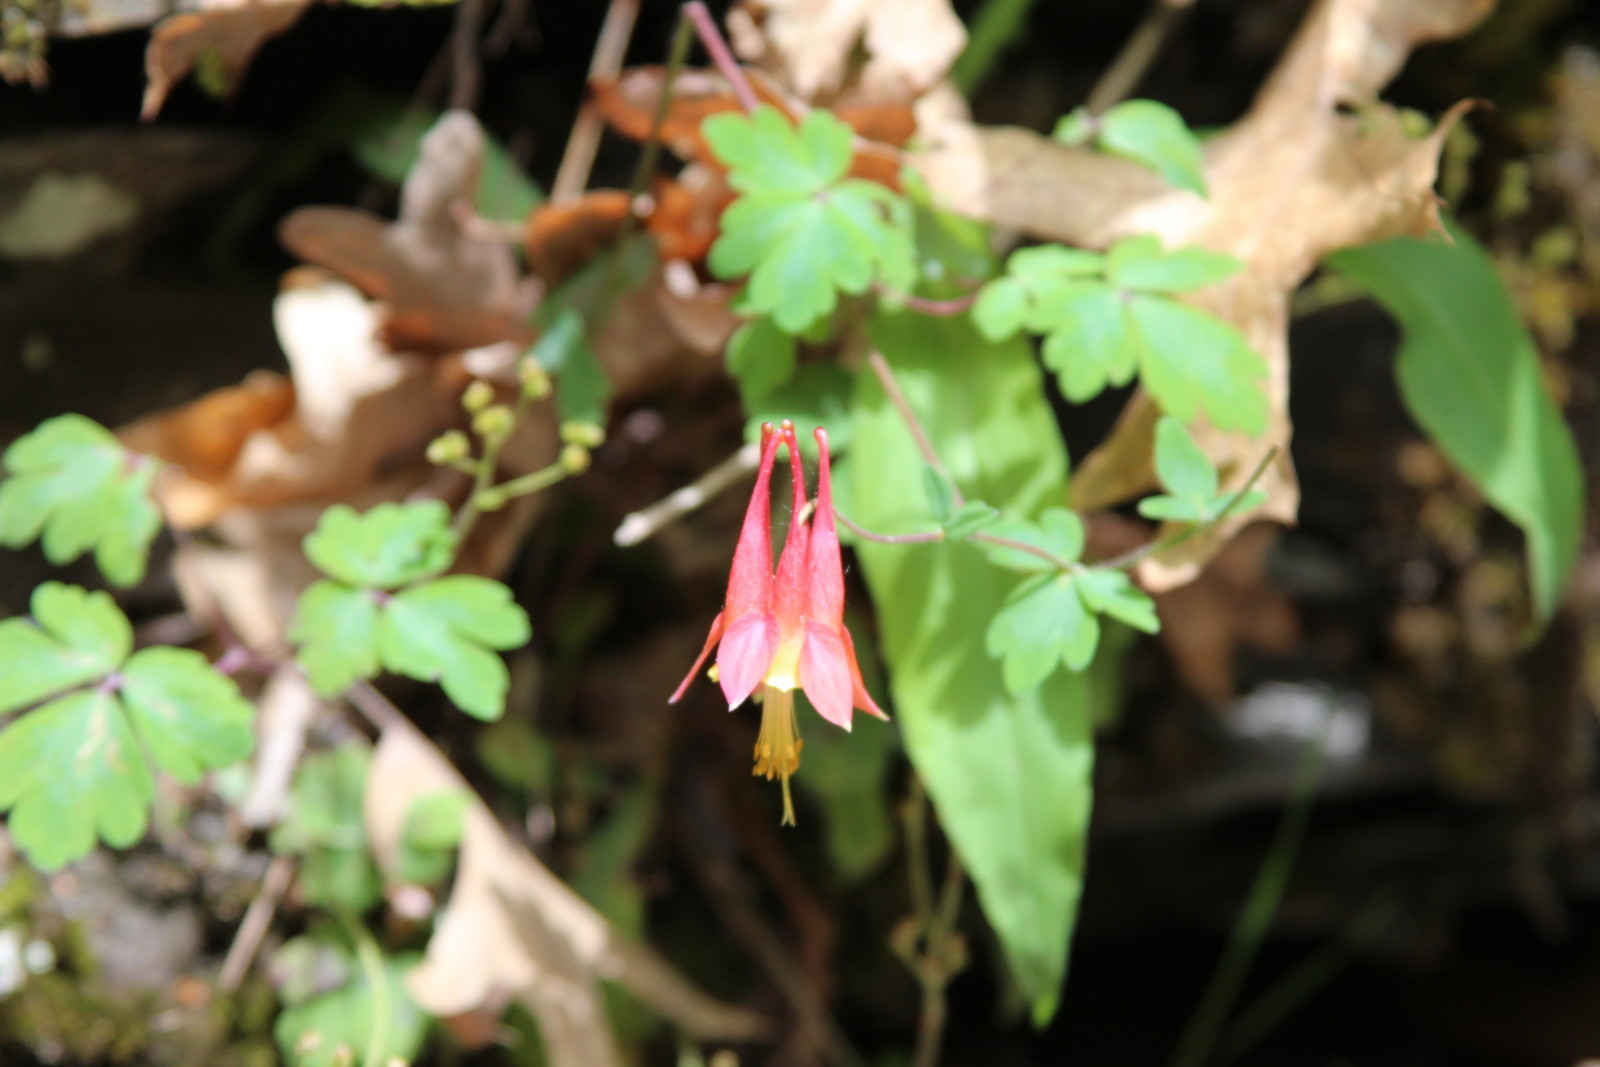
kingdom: Plantae
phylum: Tracheophyta
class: Magnoliopsida
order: Ranunculales
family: Ranunculaceae
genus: Aquilegia
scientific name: Aquilegia canadensis
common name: American columbine
